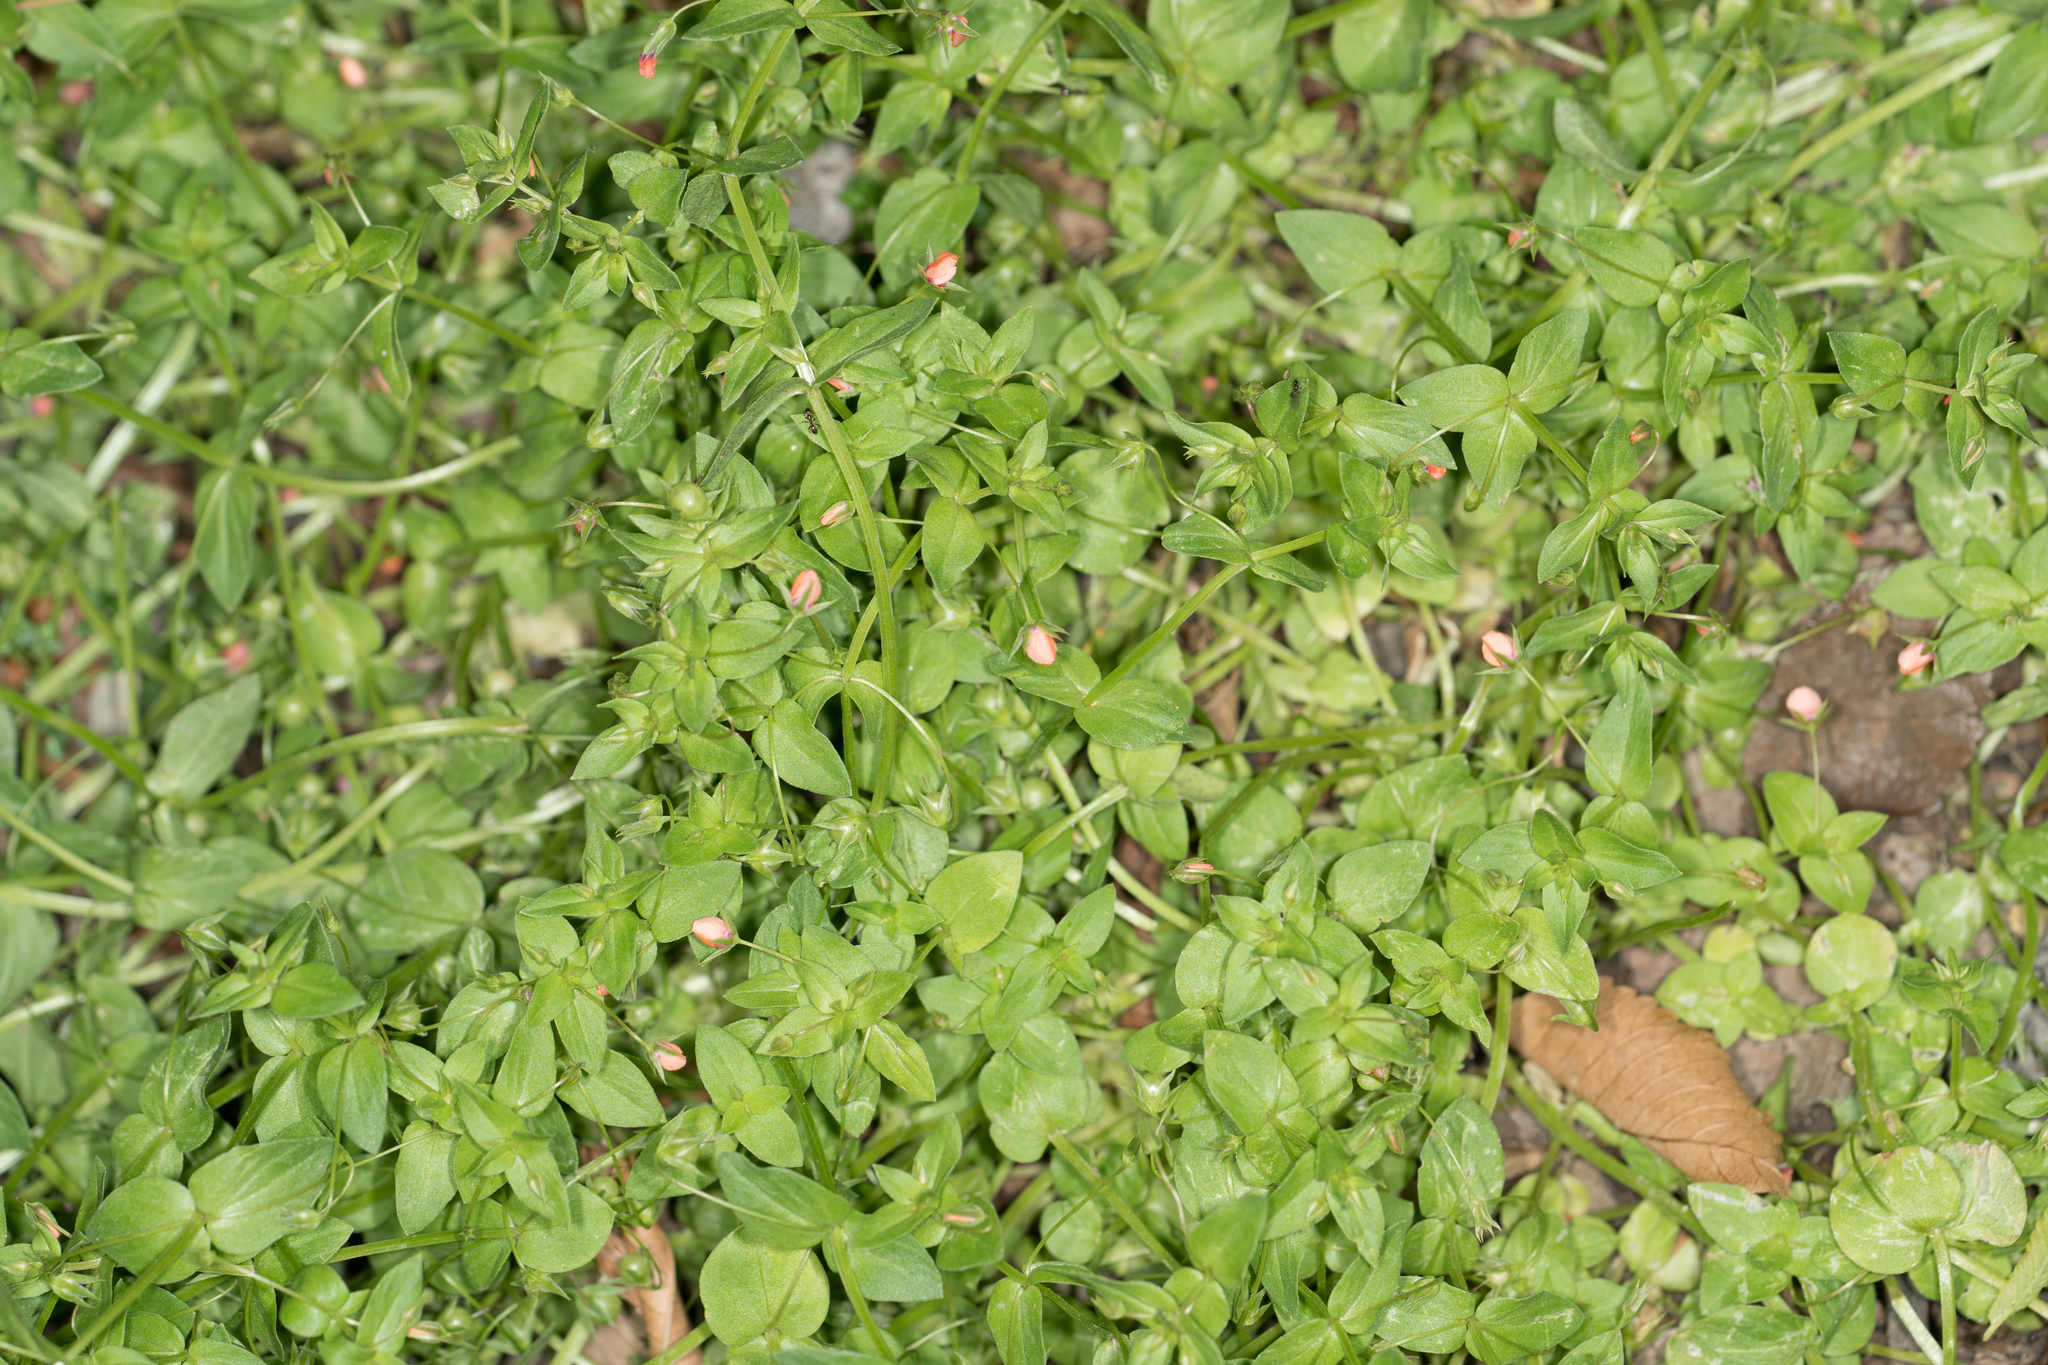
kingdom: Plantae
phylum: Tracheophyta
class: Magnoliopsida
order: Ericales
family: Primulaceae
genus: Lysimachia
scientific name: Lysimachia arvensis
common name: Scarlet pimpernel
